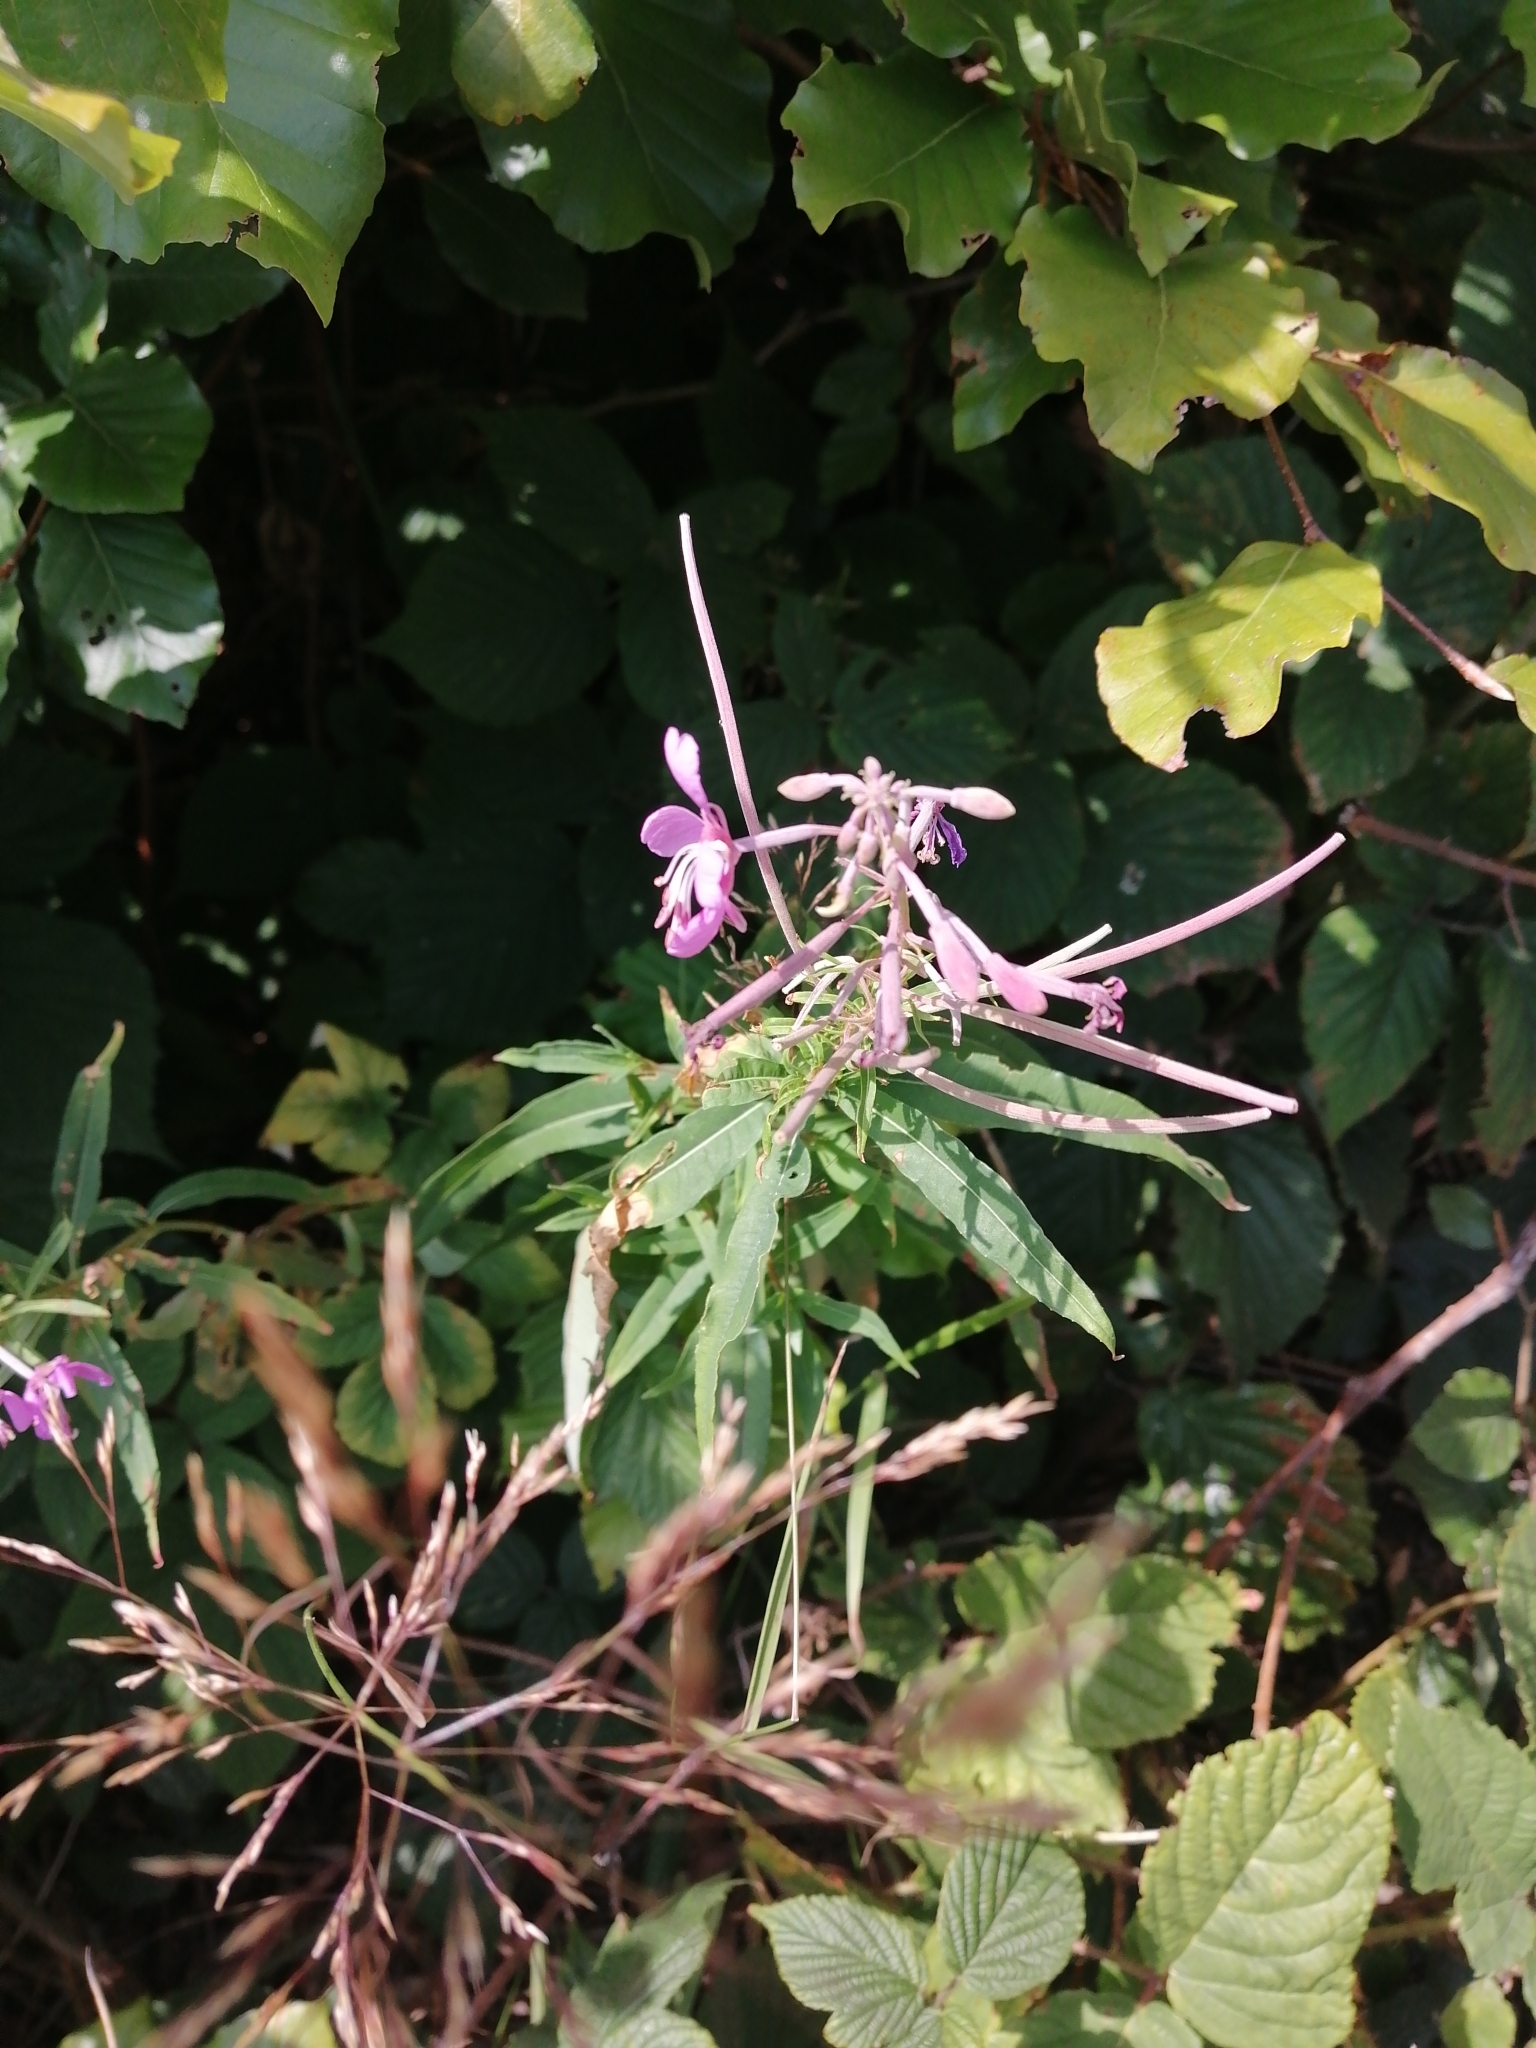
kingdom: Plantae
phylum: Tracheophyta
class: Magnoliopsida
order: Myrtales
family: Onagraceae
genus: Chamaenerion
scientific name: Chamaenerion angustifolium
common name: Fireweed
